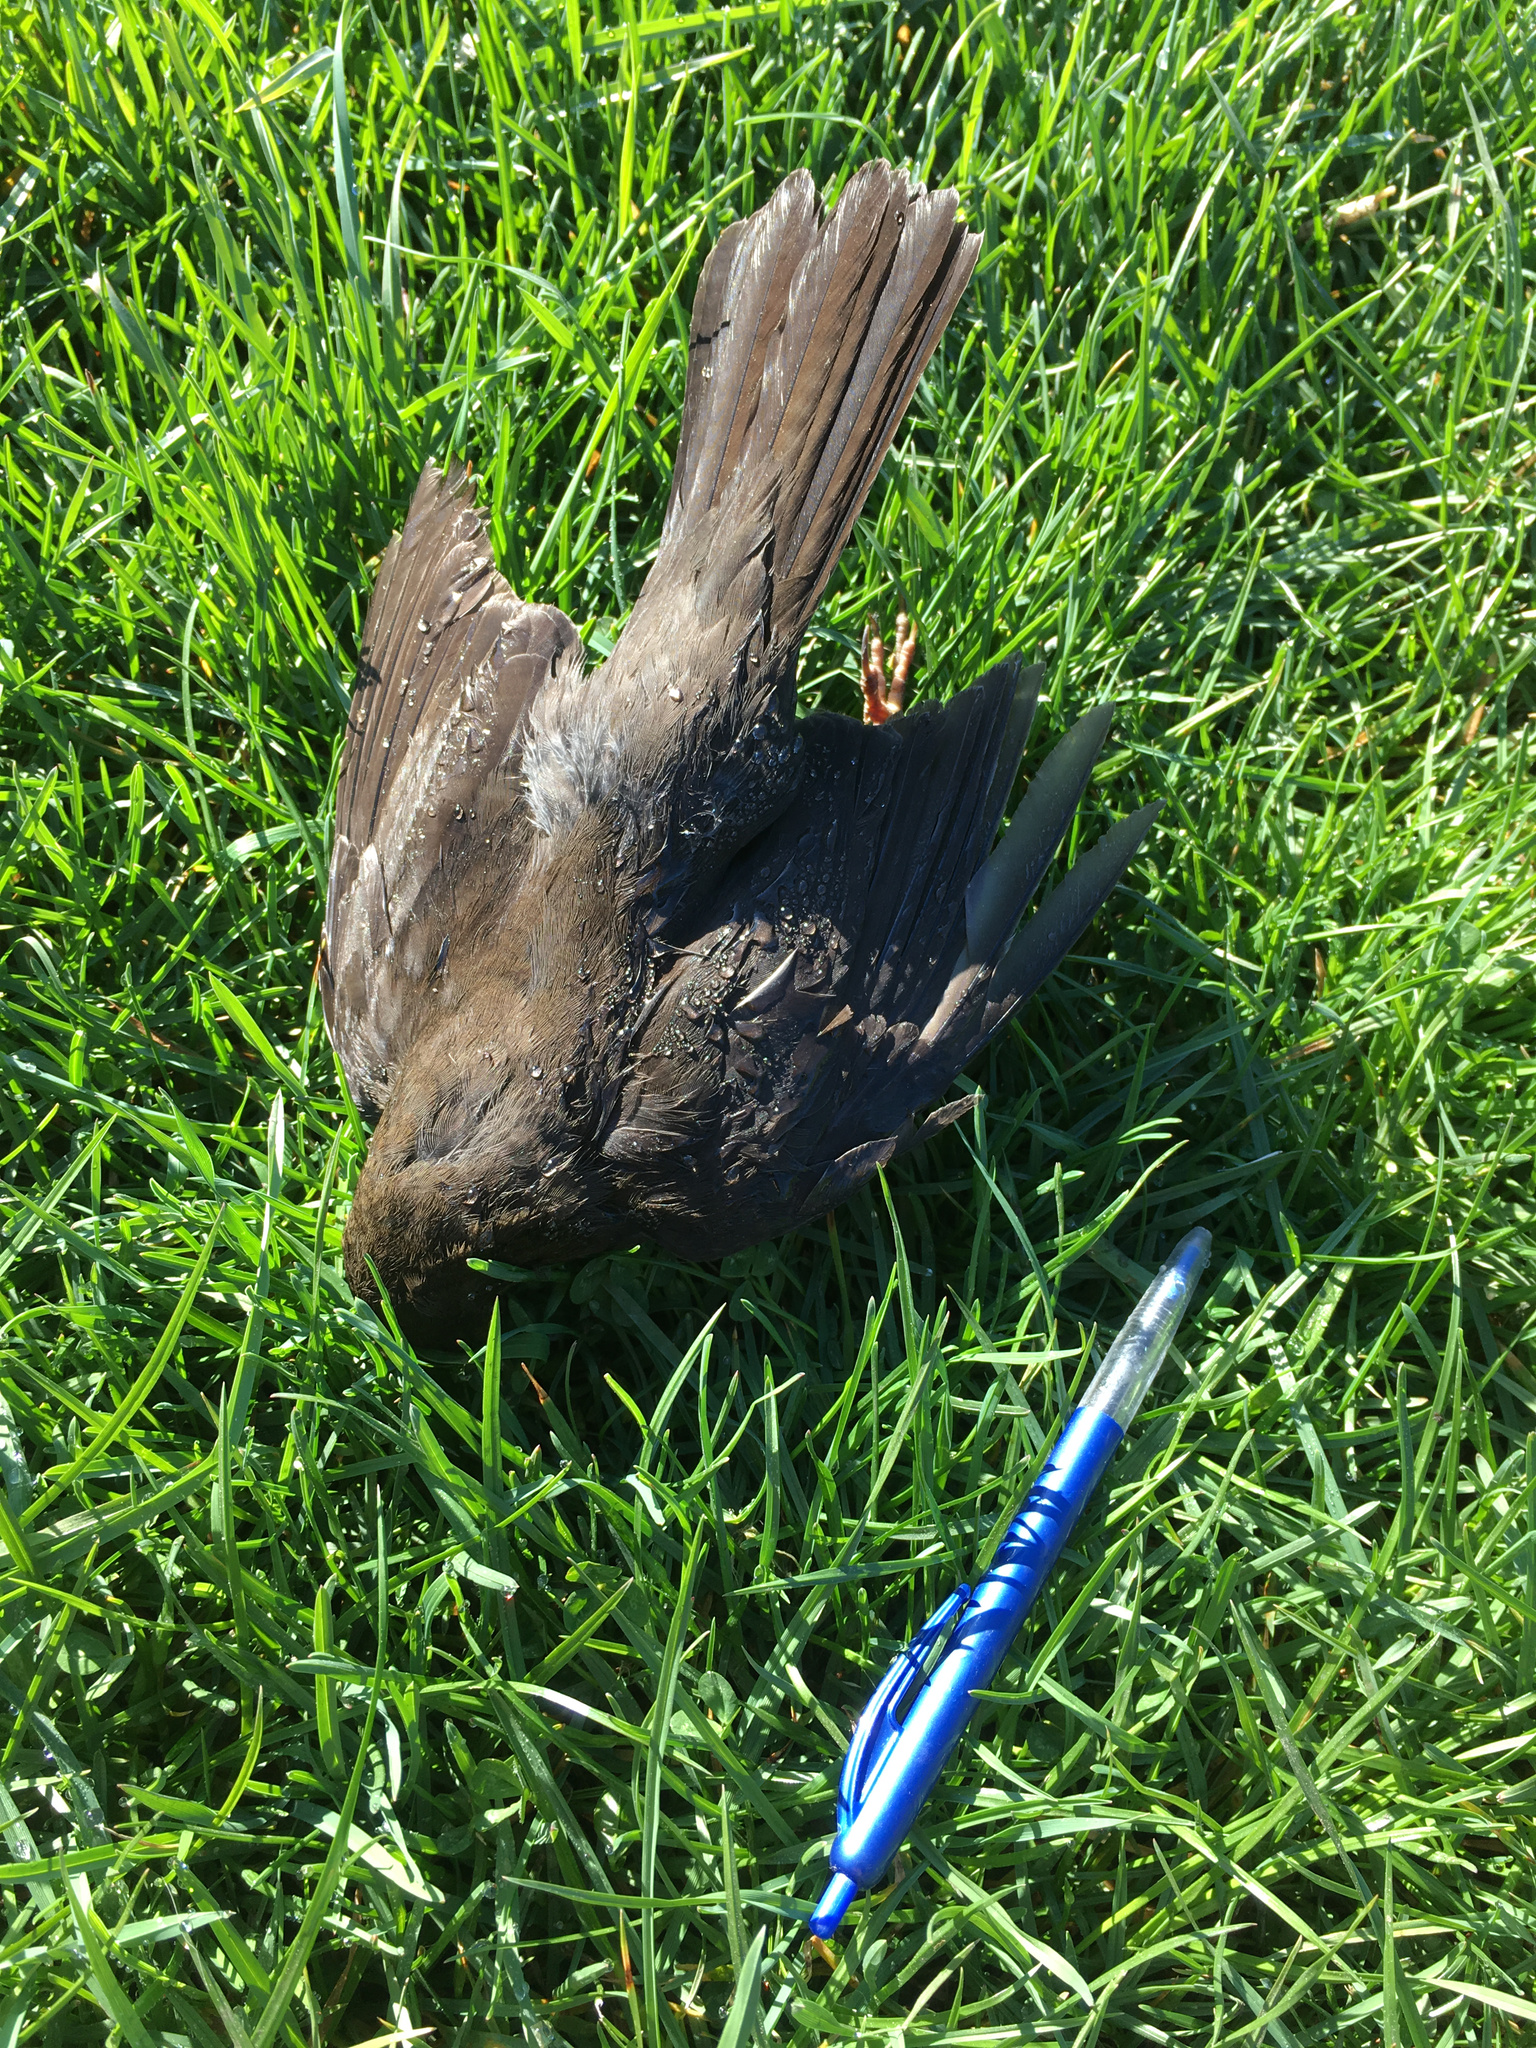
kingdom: Animalia
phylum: Chordata
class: Aves
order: Passeriformes
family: Turdidae
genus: Turdus
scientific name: Turdus merula
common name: Common blackbird
